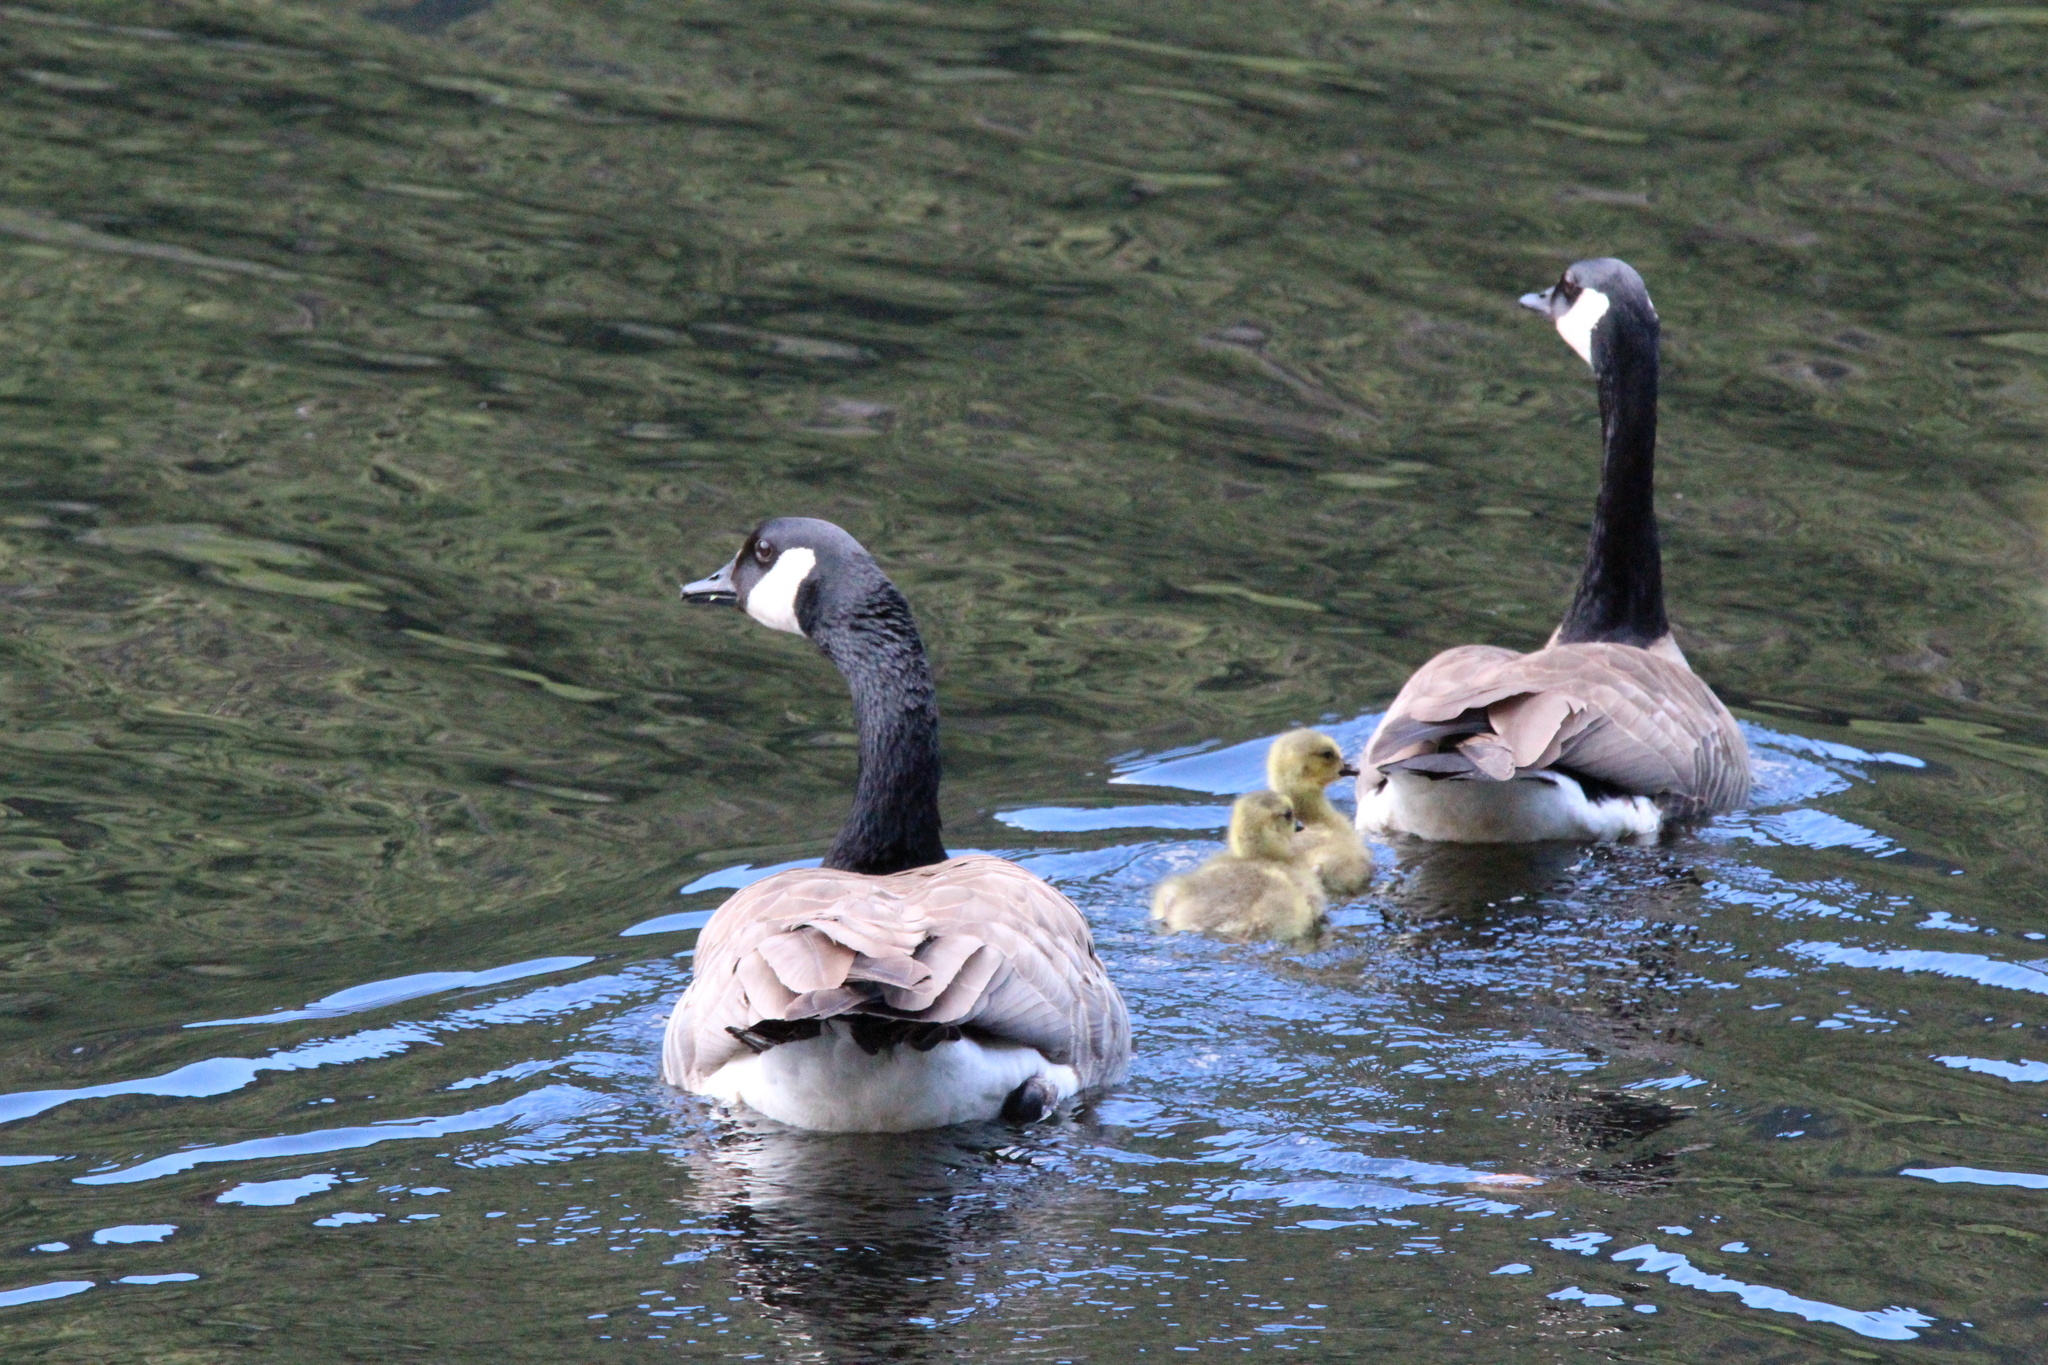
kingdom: Animalia
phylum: Chordata
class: Aves
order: Anseriformes
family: Anatidae
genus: Branta
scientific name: Branta canadensis
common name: Canada goose
